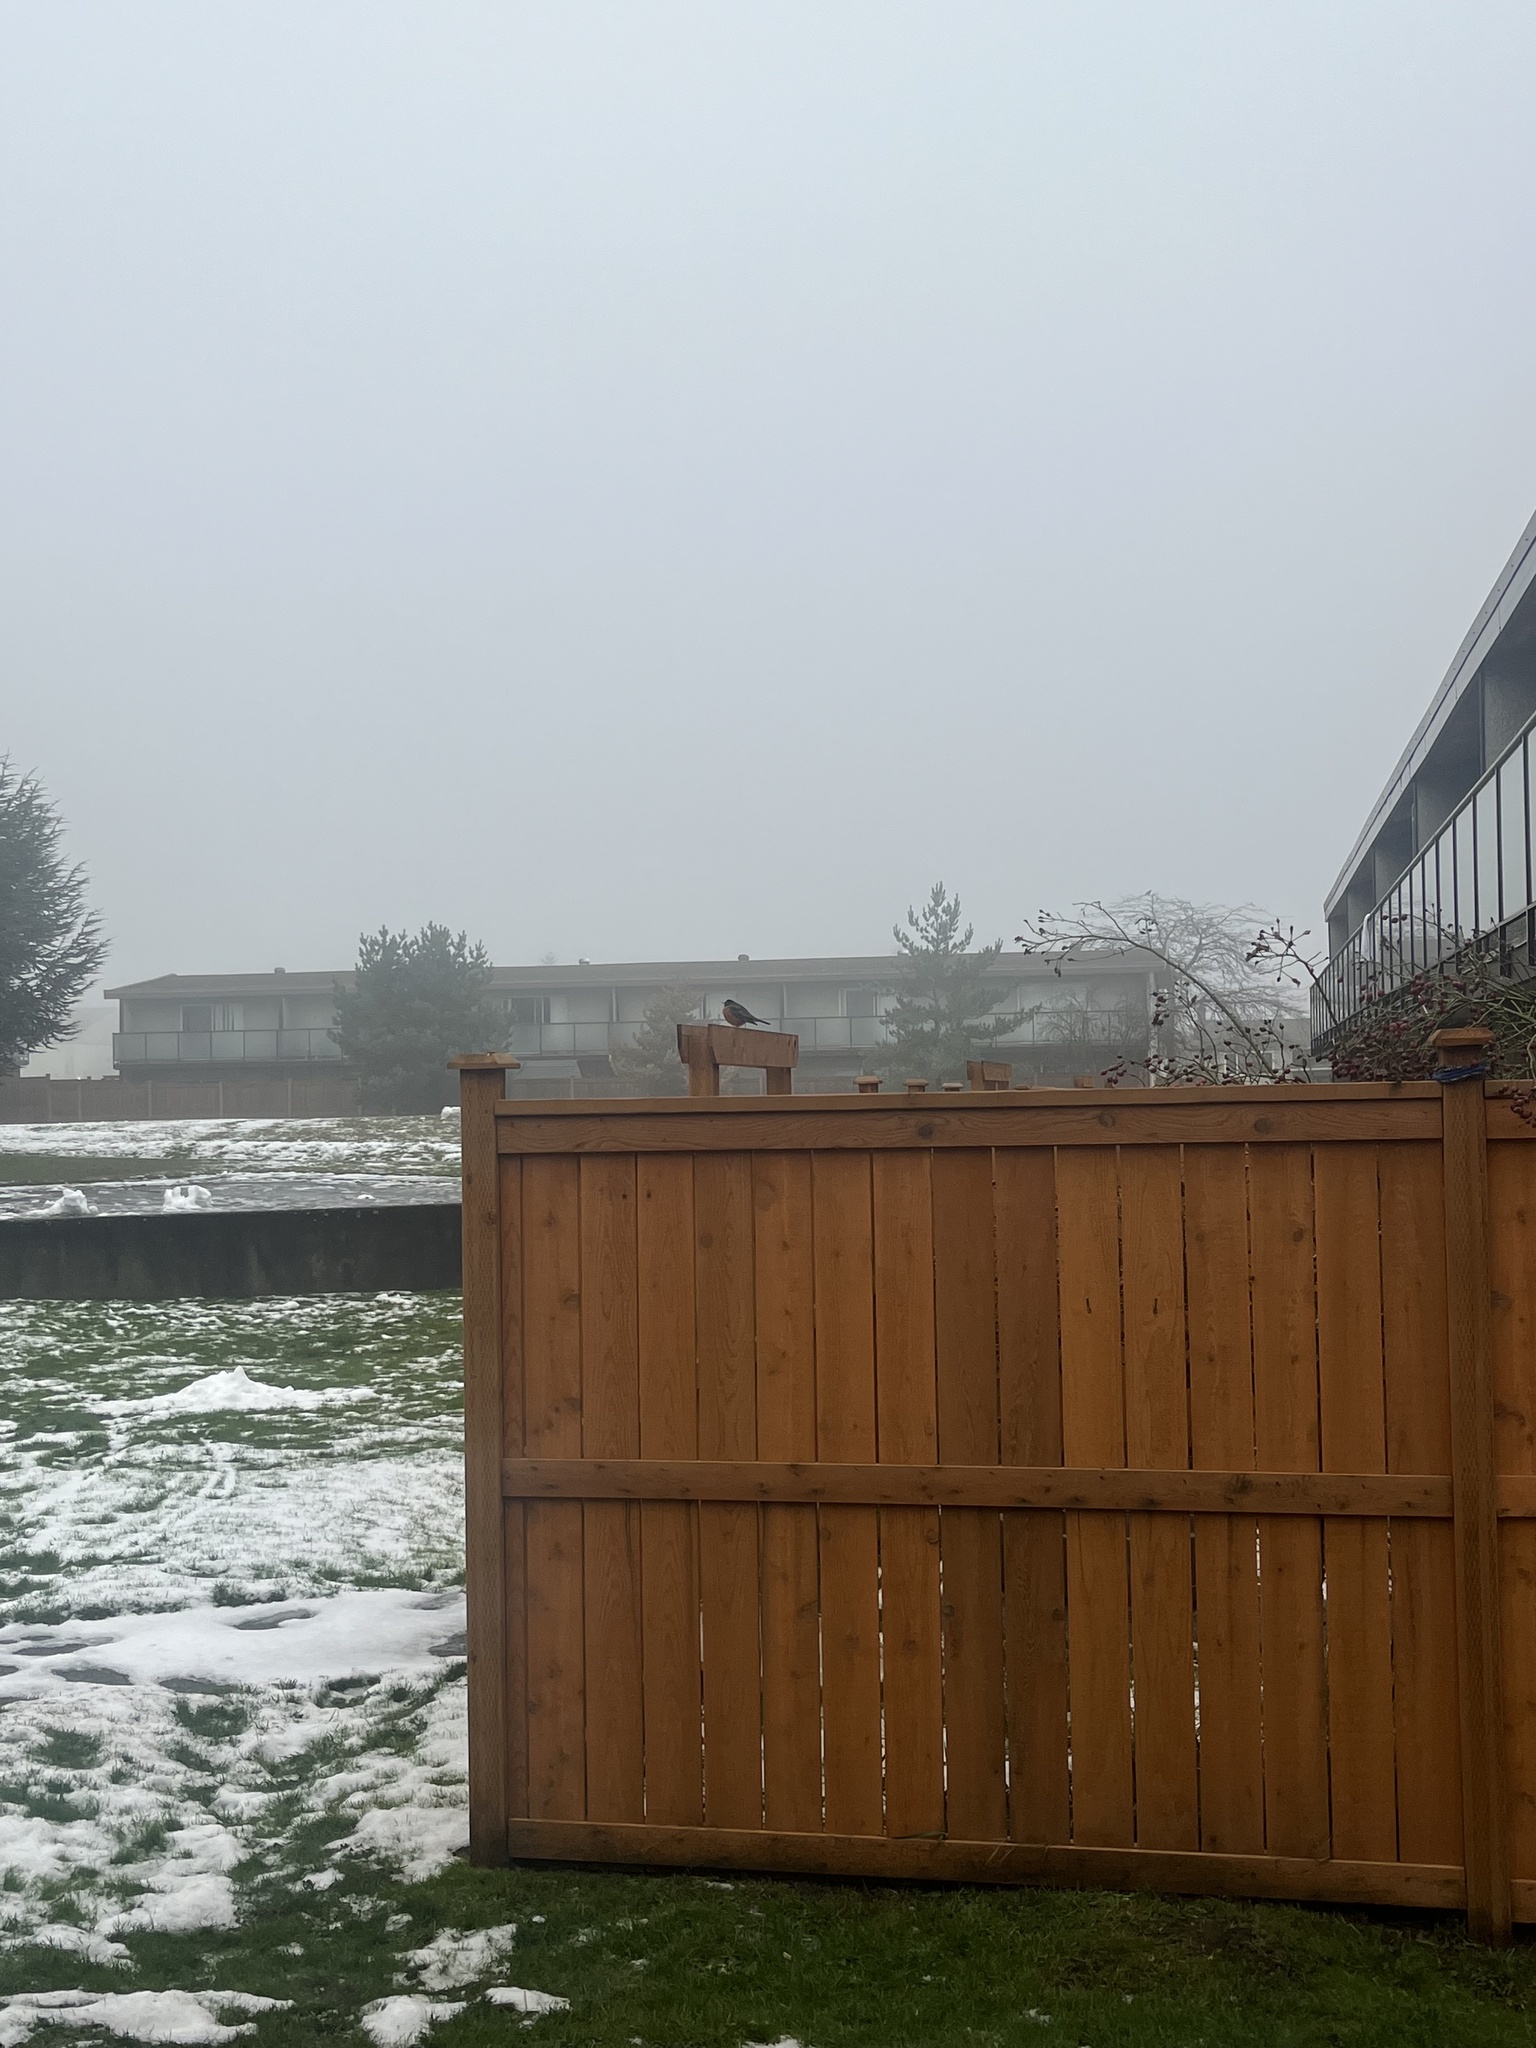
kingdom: Animalia
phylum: Chordata
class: Aves
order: Passeriformes
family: Turdidae
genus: Turdus
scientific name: Turdus migratorius
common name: American robin
